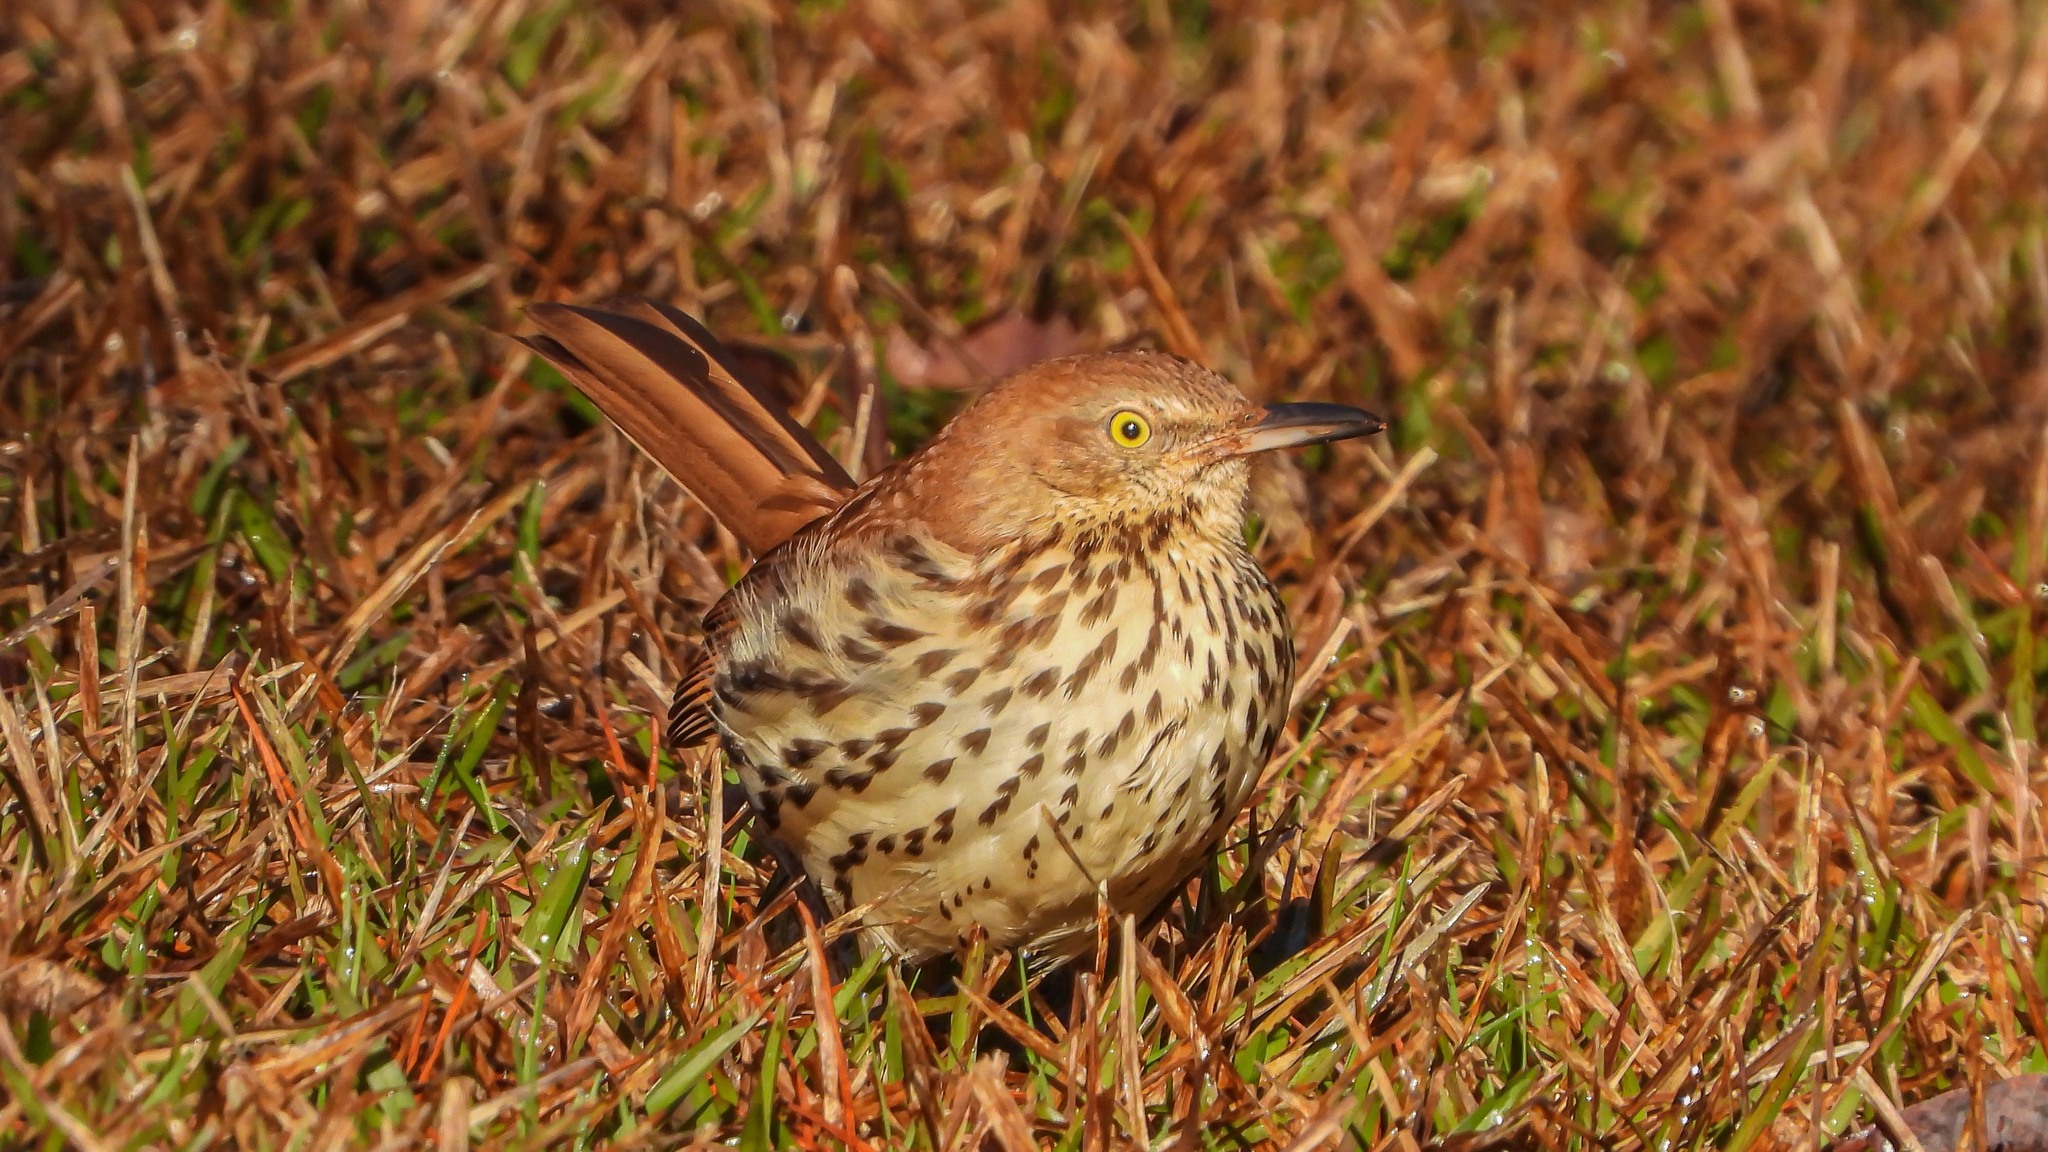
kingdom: Animalia
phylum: Chordata
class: Aves
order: Passeriformes
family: Mimidae
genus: Toxostoma
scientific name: Toxostoma rufum
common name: Brown thrasher
